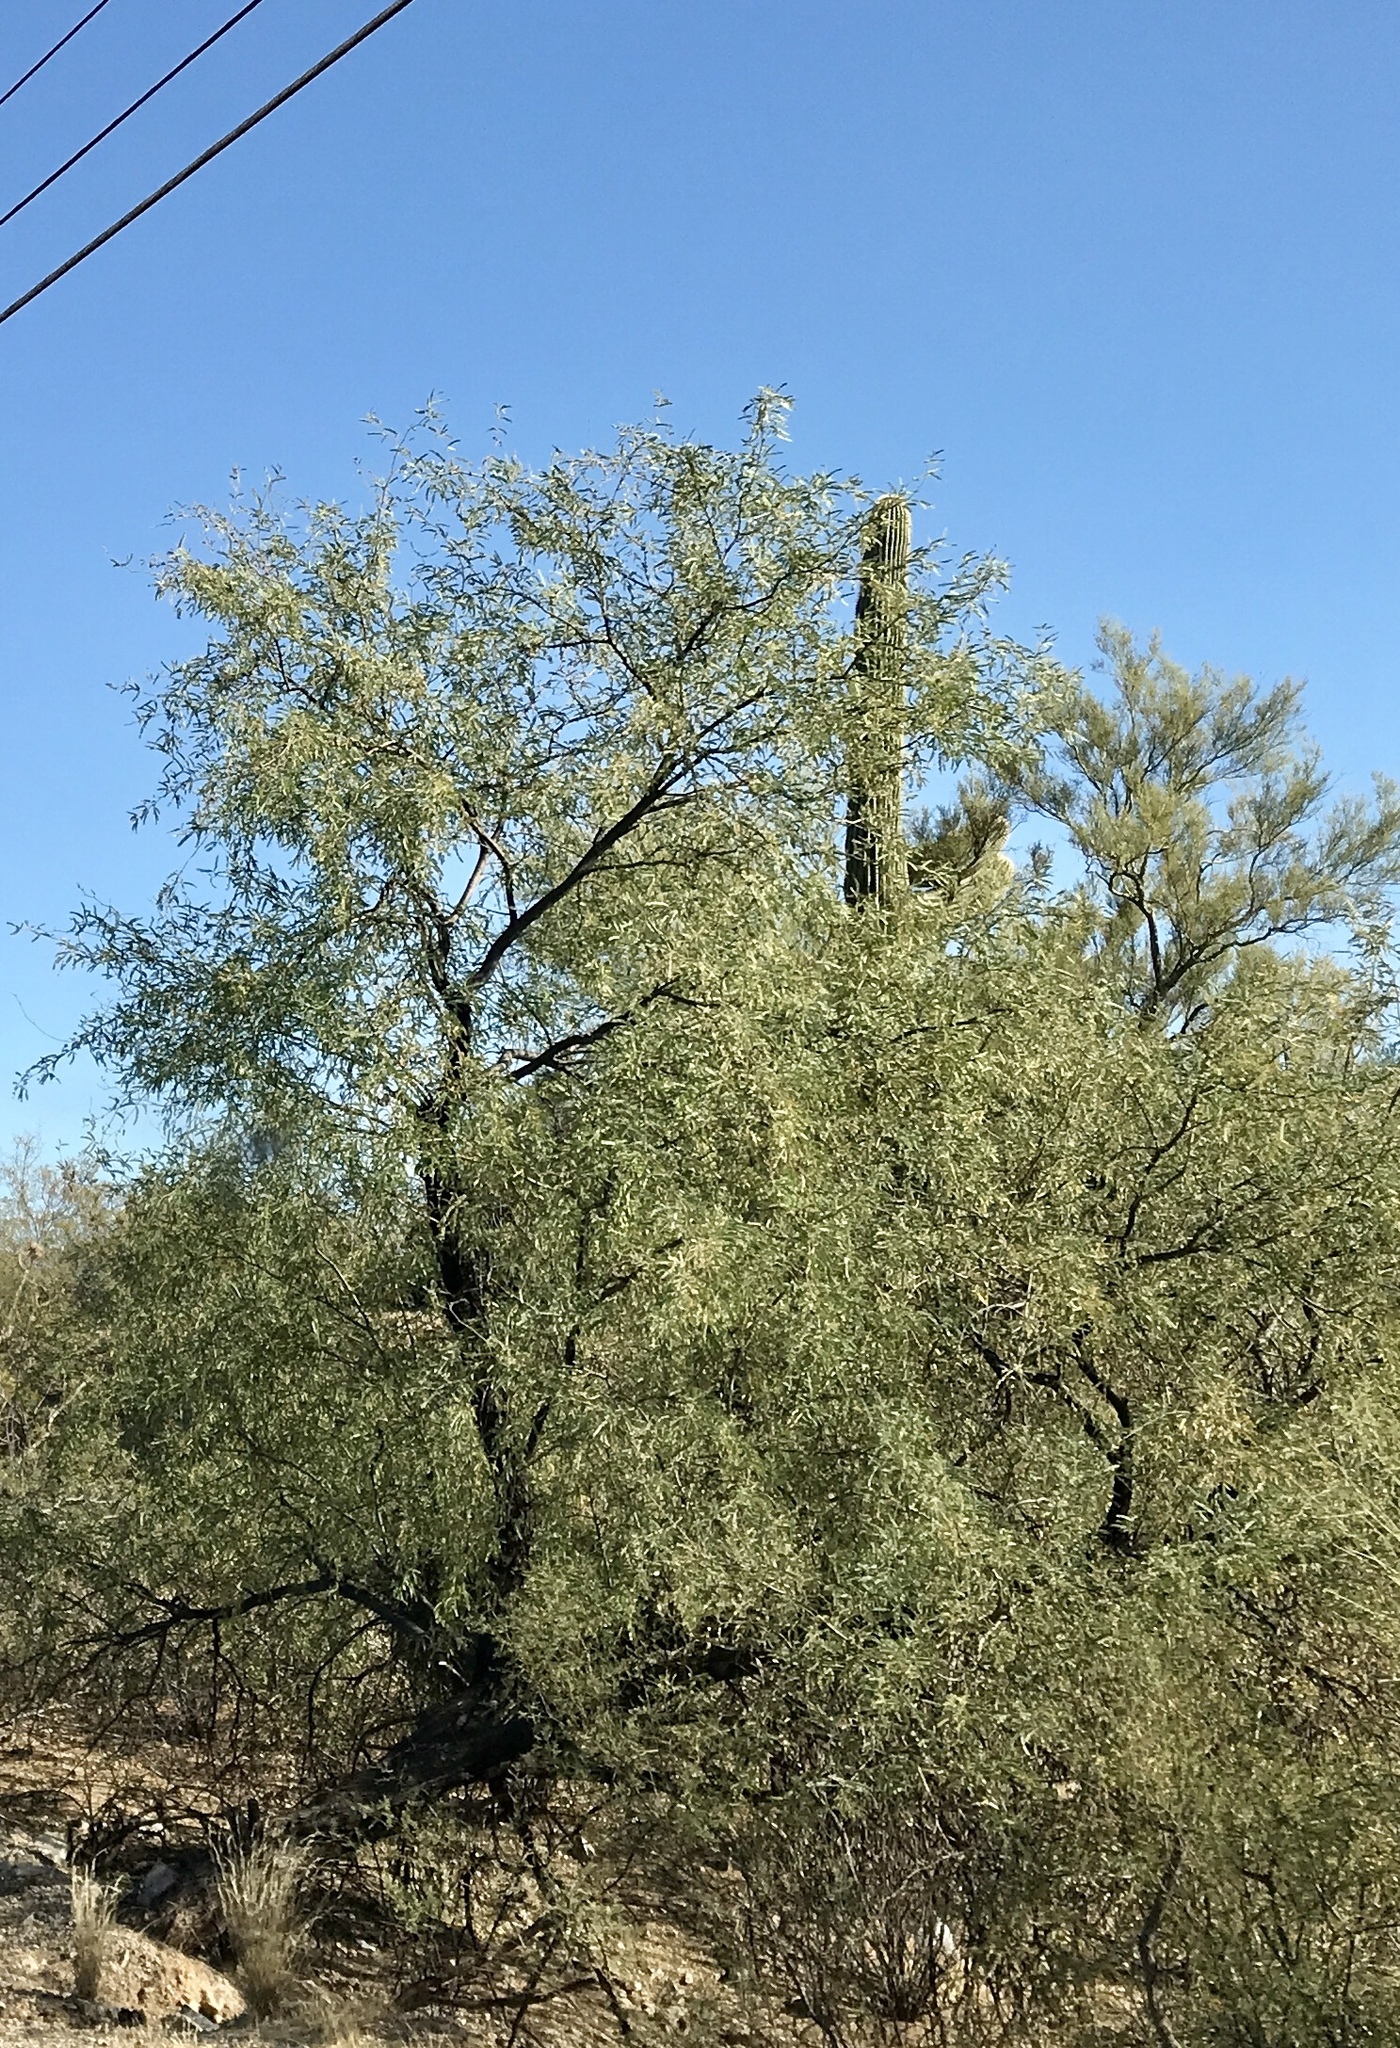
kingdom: Plantae
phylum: Tracheophyta
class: Magnoliopsida
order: Fabales
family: Fabaceae
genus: Prosopis
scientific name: Prosopis velutina
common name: Velvet mesquite
